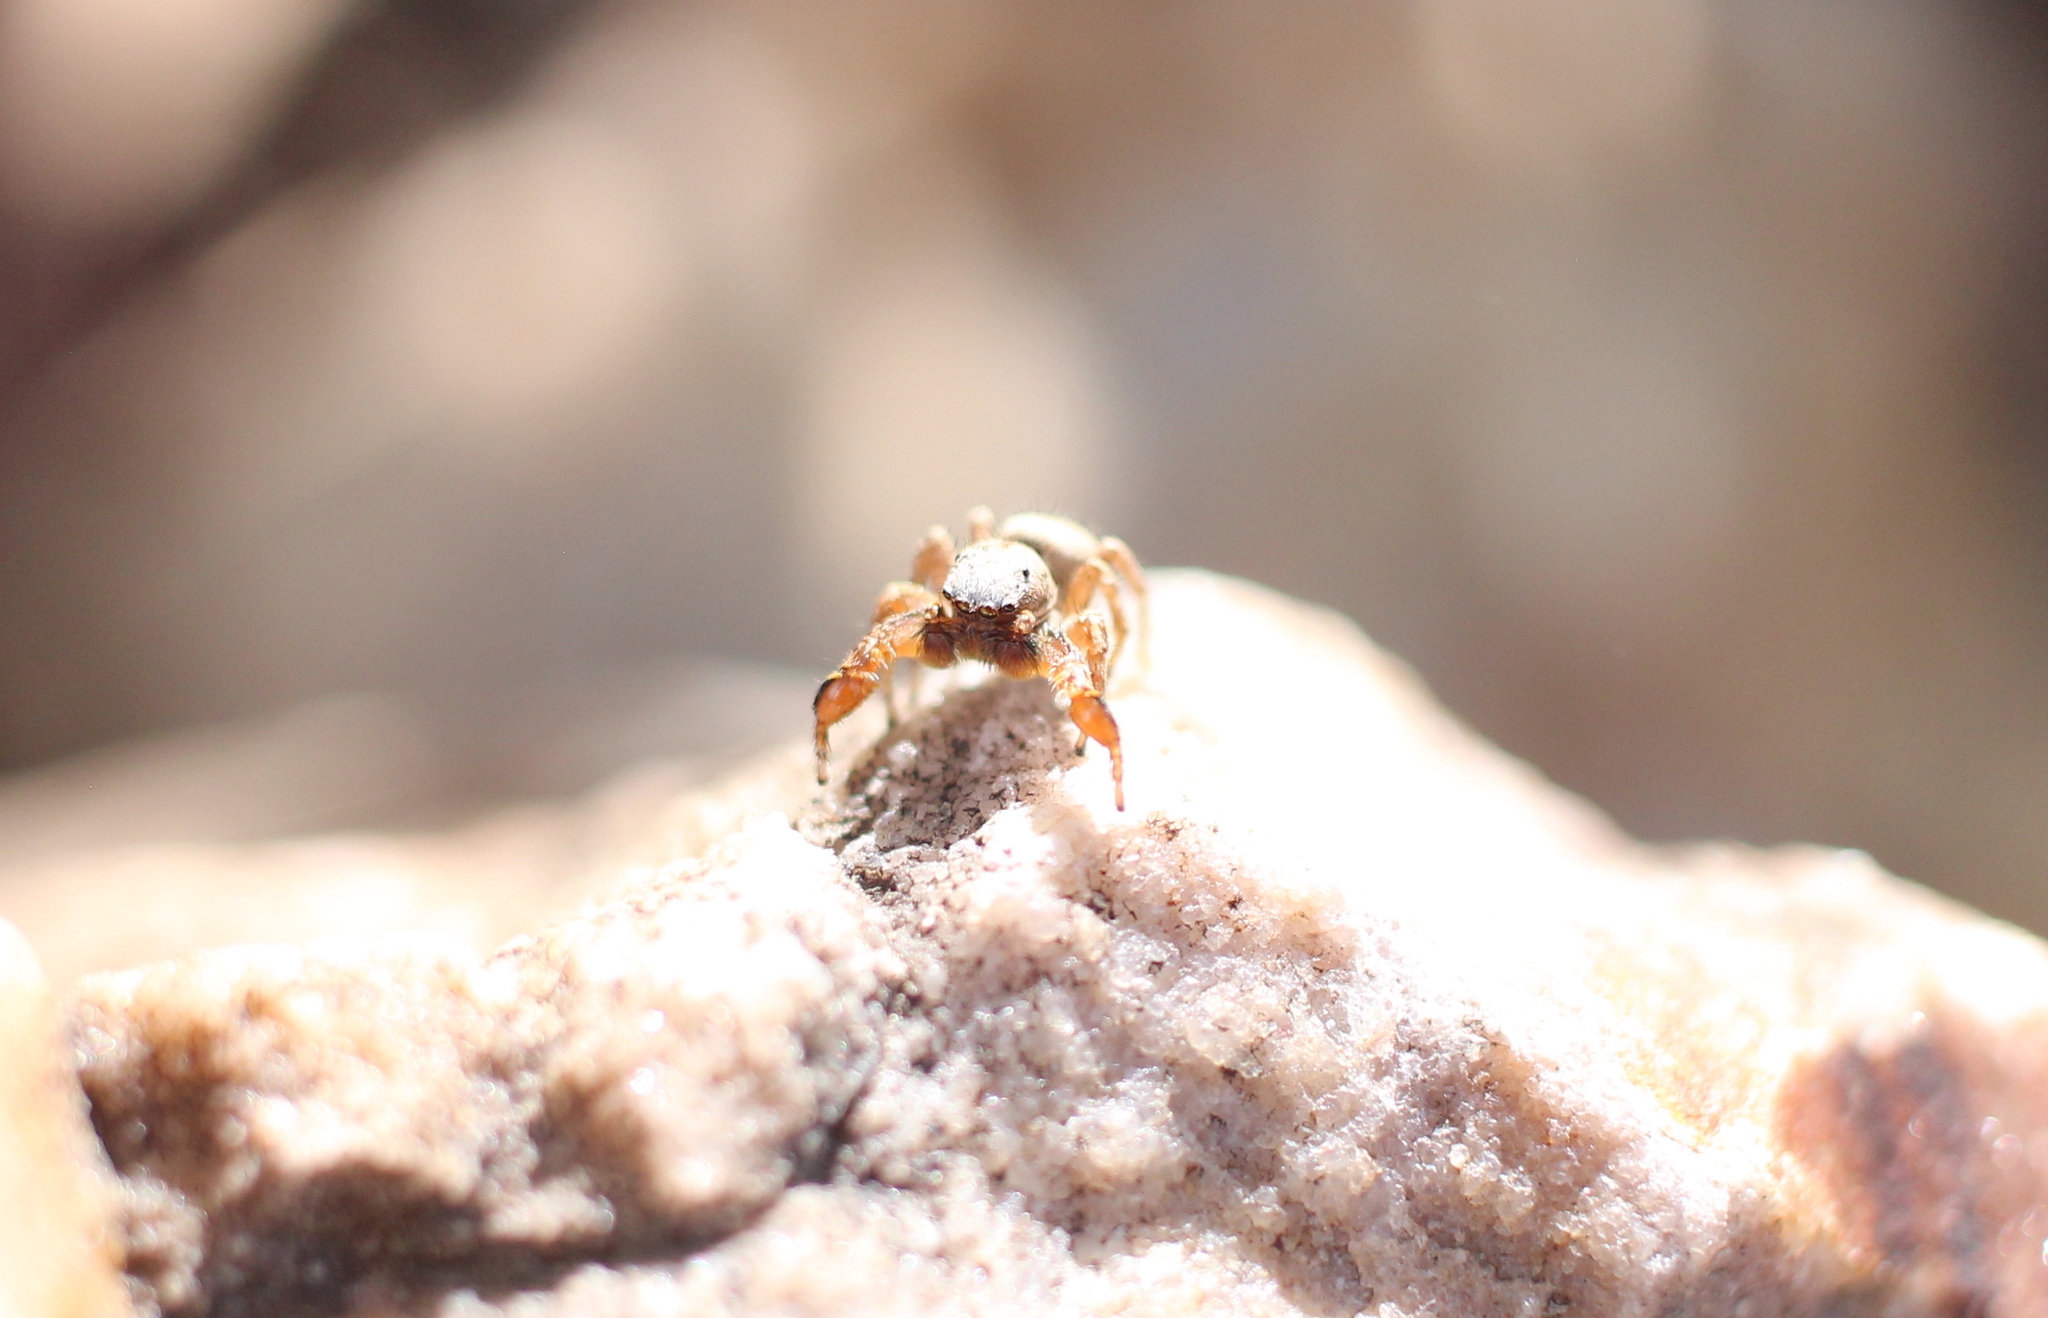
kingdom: Animalia
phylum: Arthropoda
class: Arachnida
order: Araneae
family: Salticidae
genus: Habronattus
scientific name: Habronattus oregonensis
